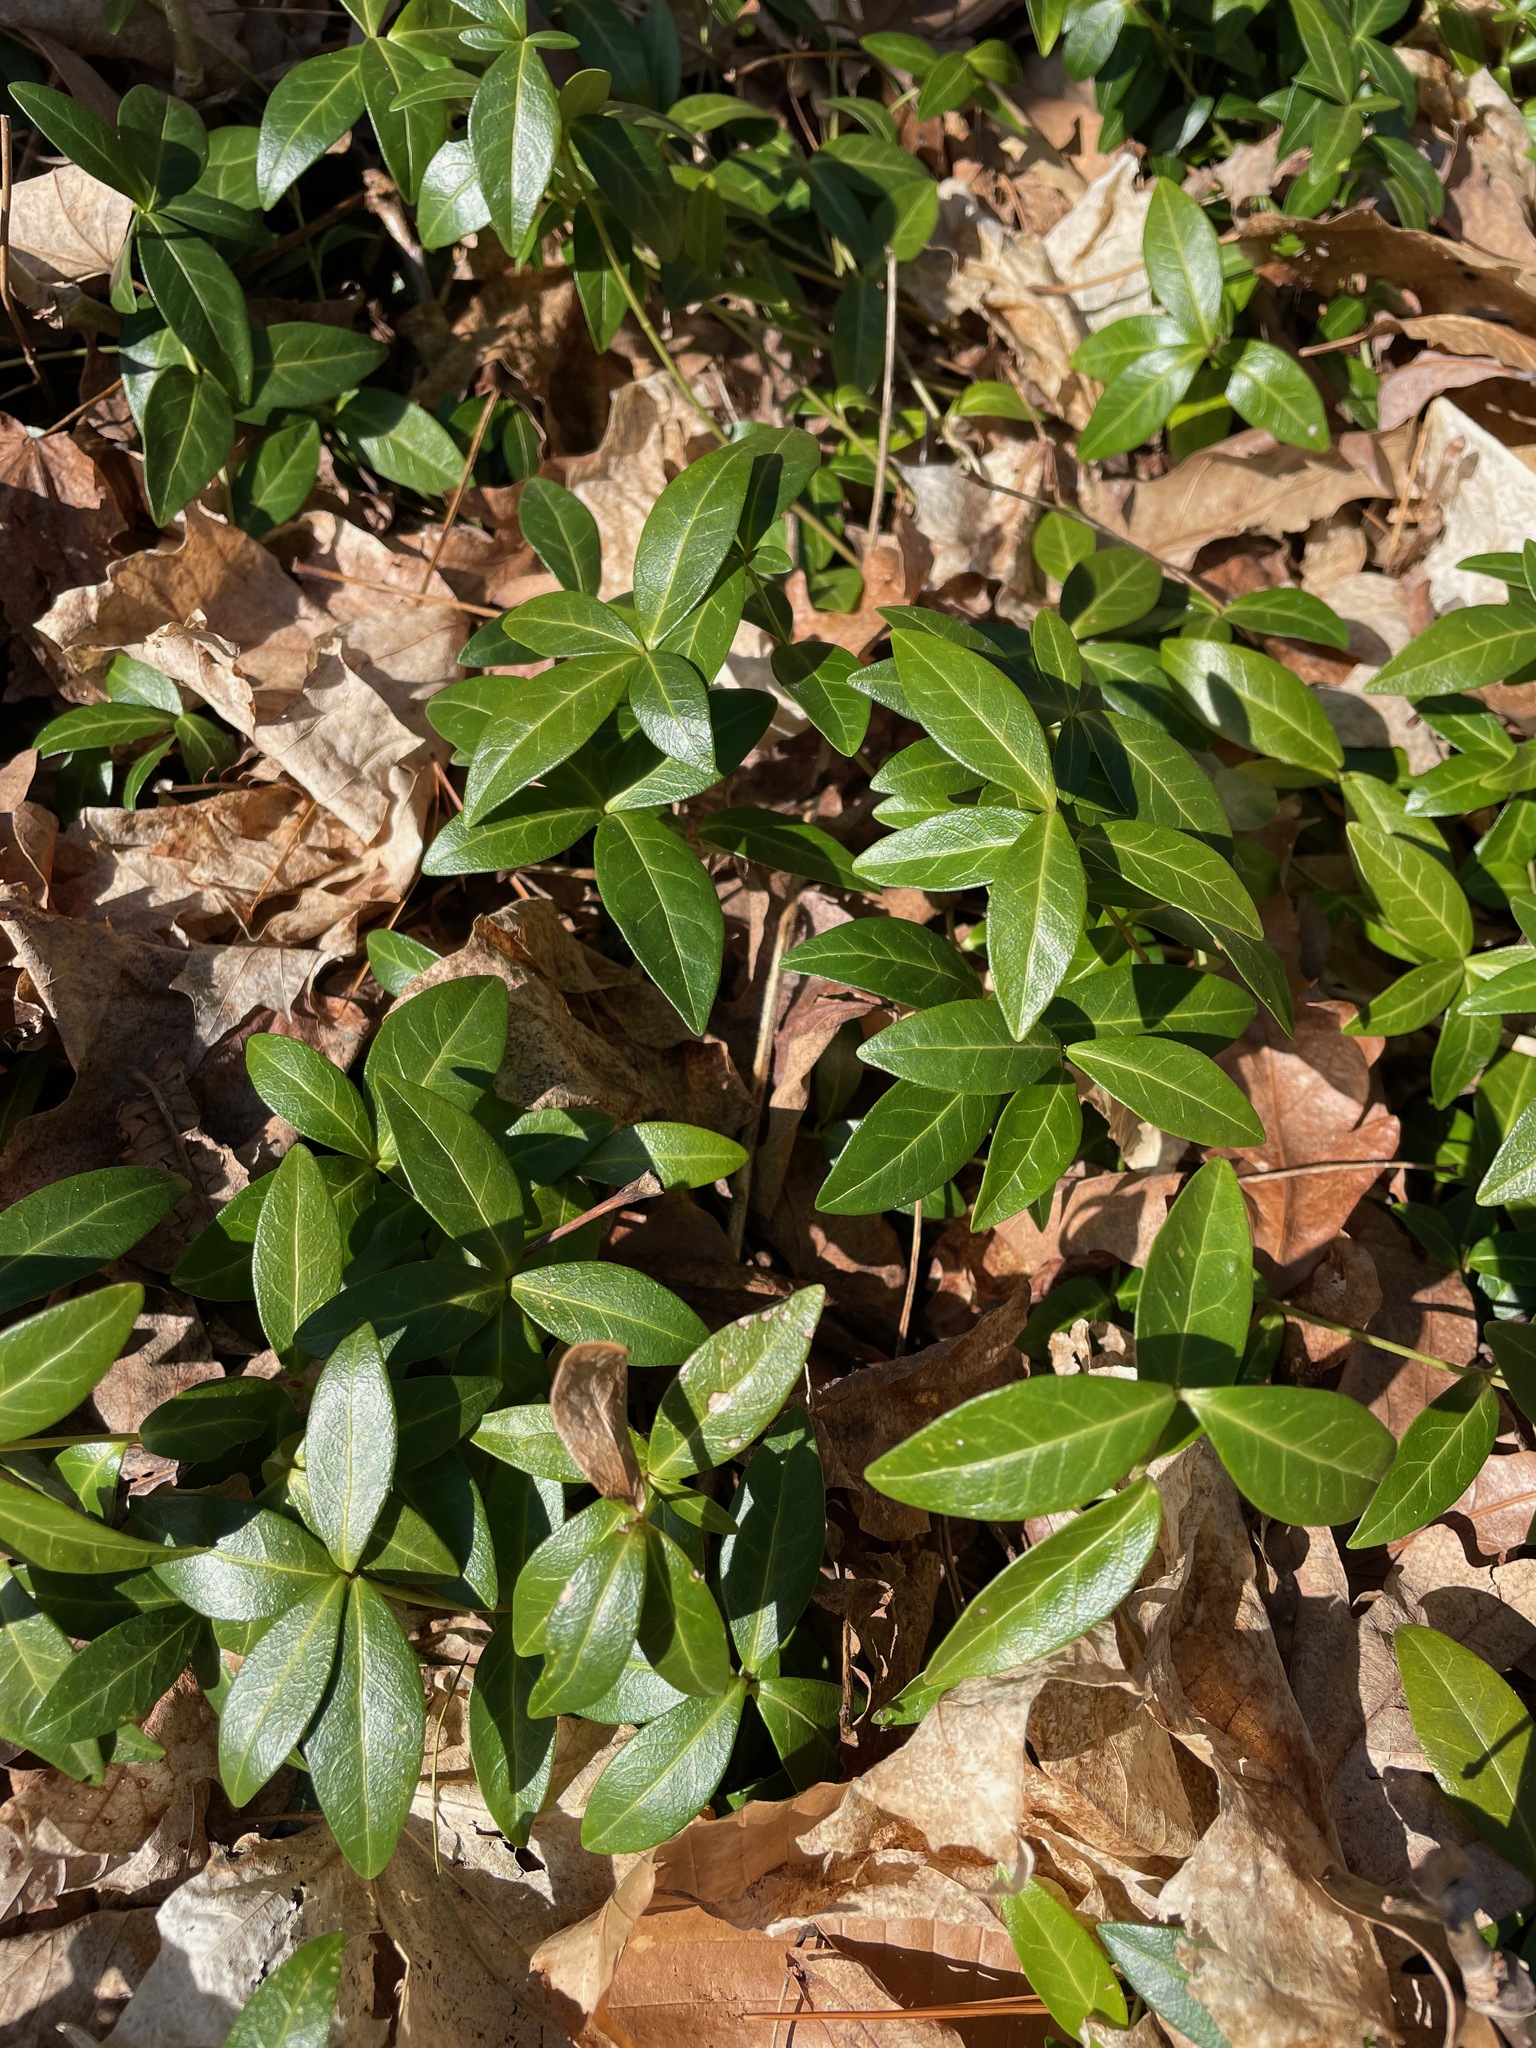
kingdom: Plantae
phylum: Tracheophyta
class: Magnoliopsida
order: Gentianales
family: Apocynaceae
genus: Vinca
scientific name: Vinca minor
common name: Lesser periwinkle
